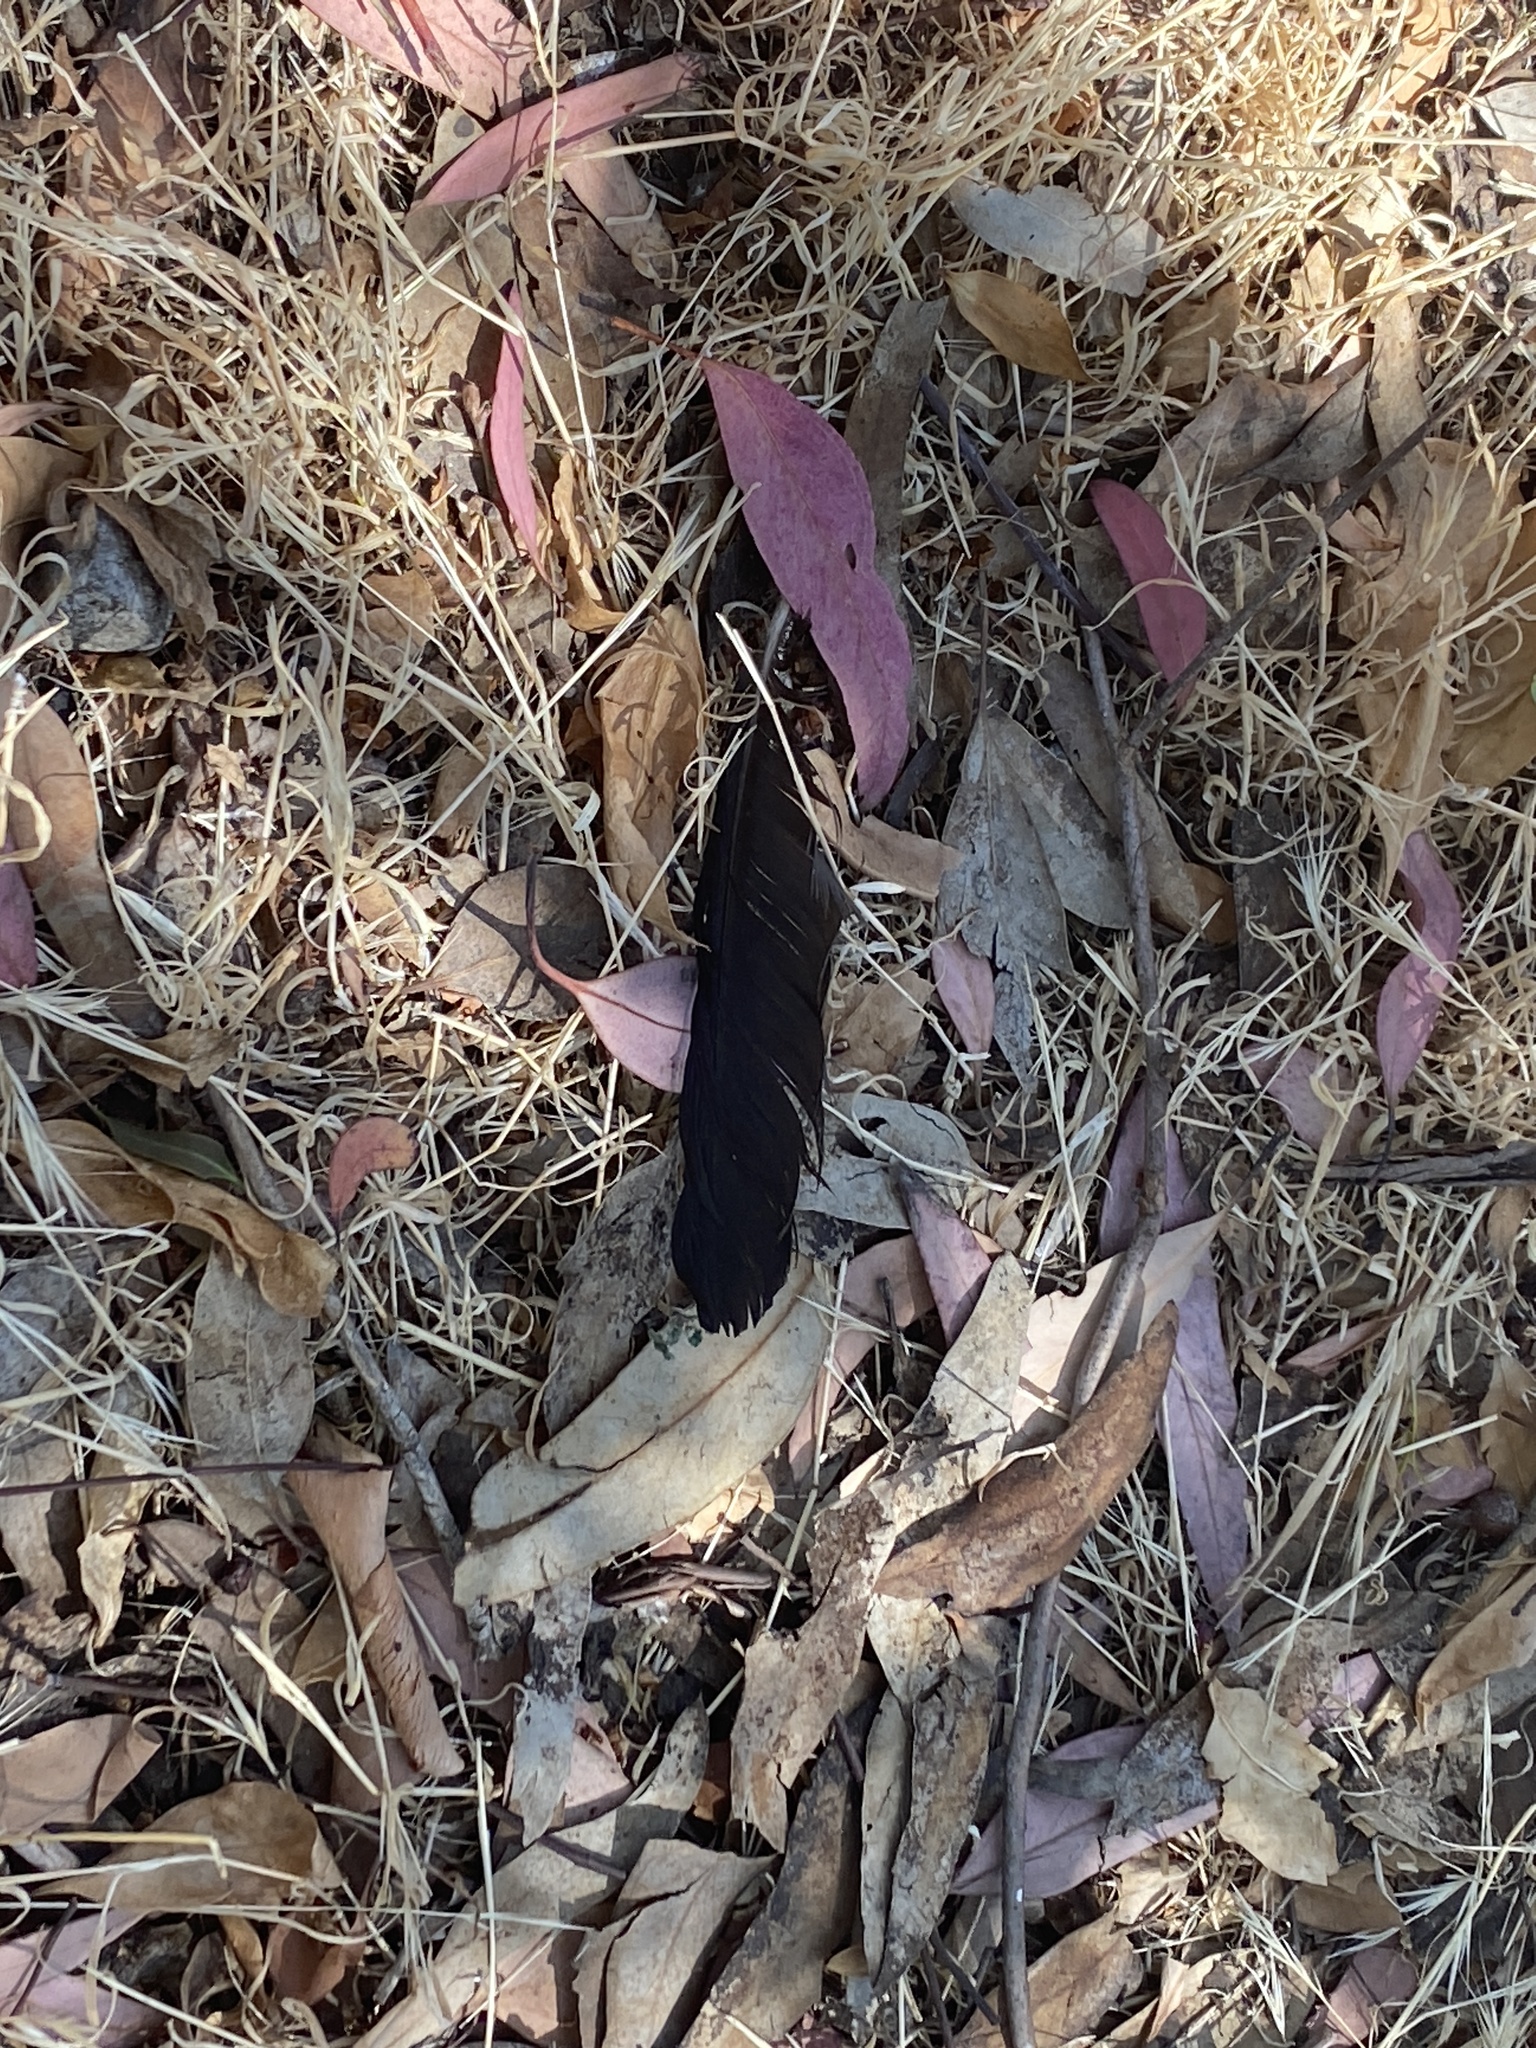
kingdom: Animalia
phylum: Chordata
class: Aves
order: Passeriformes
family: Corvidae
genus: Corvus
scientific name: Corvus brachyrhynchos
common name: American crow
